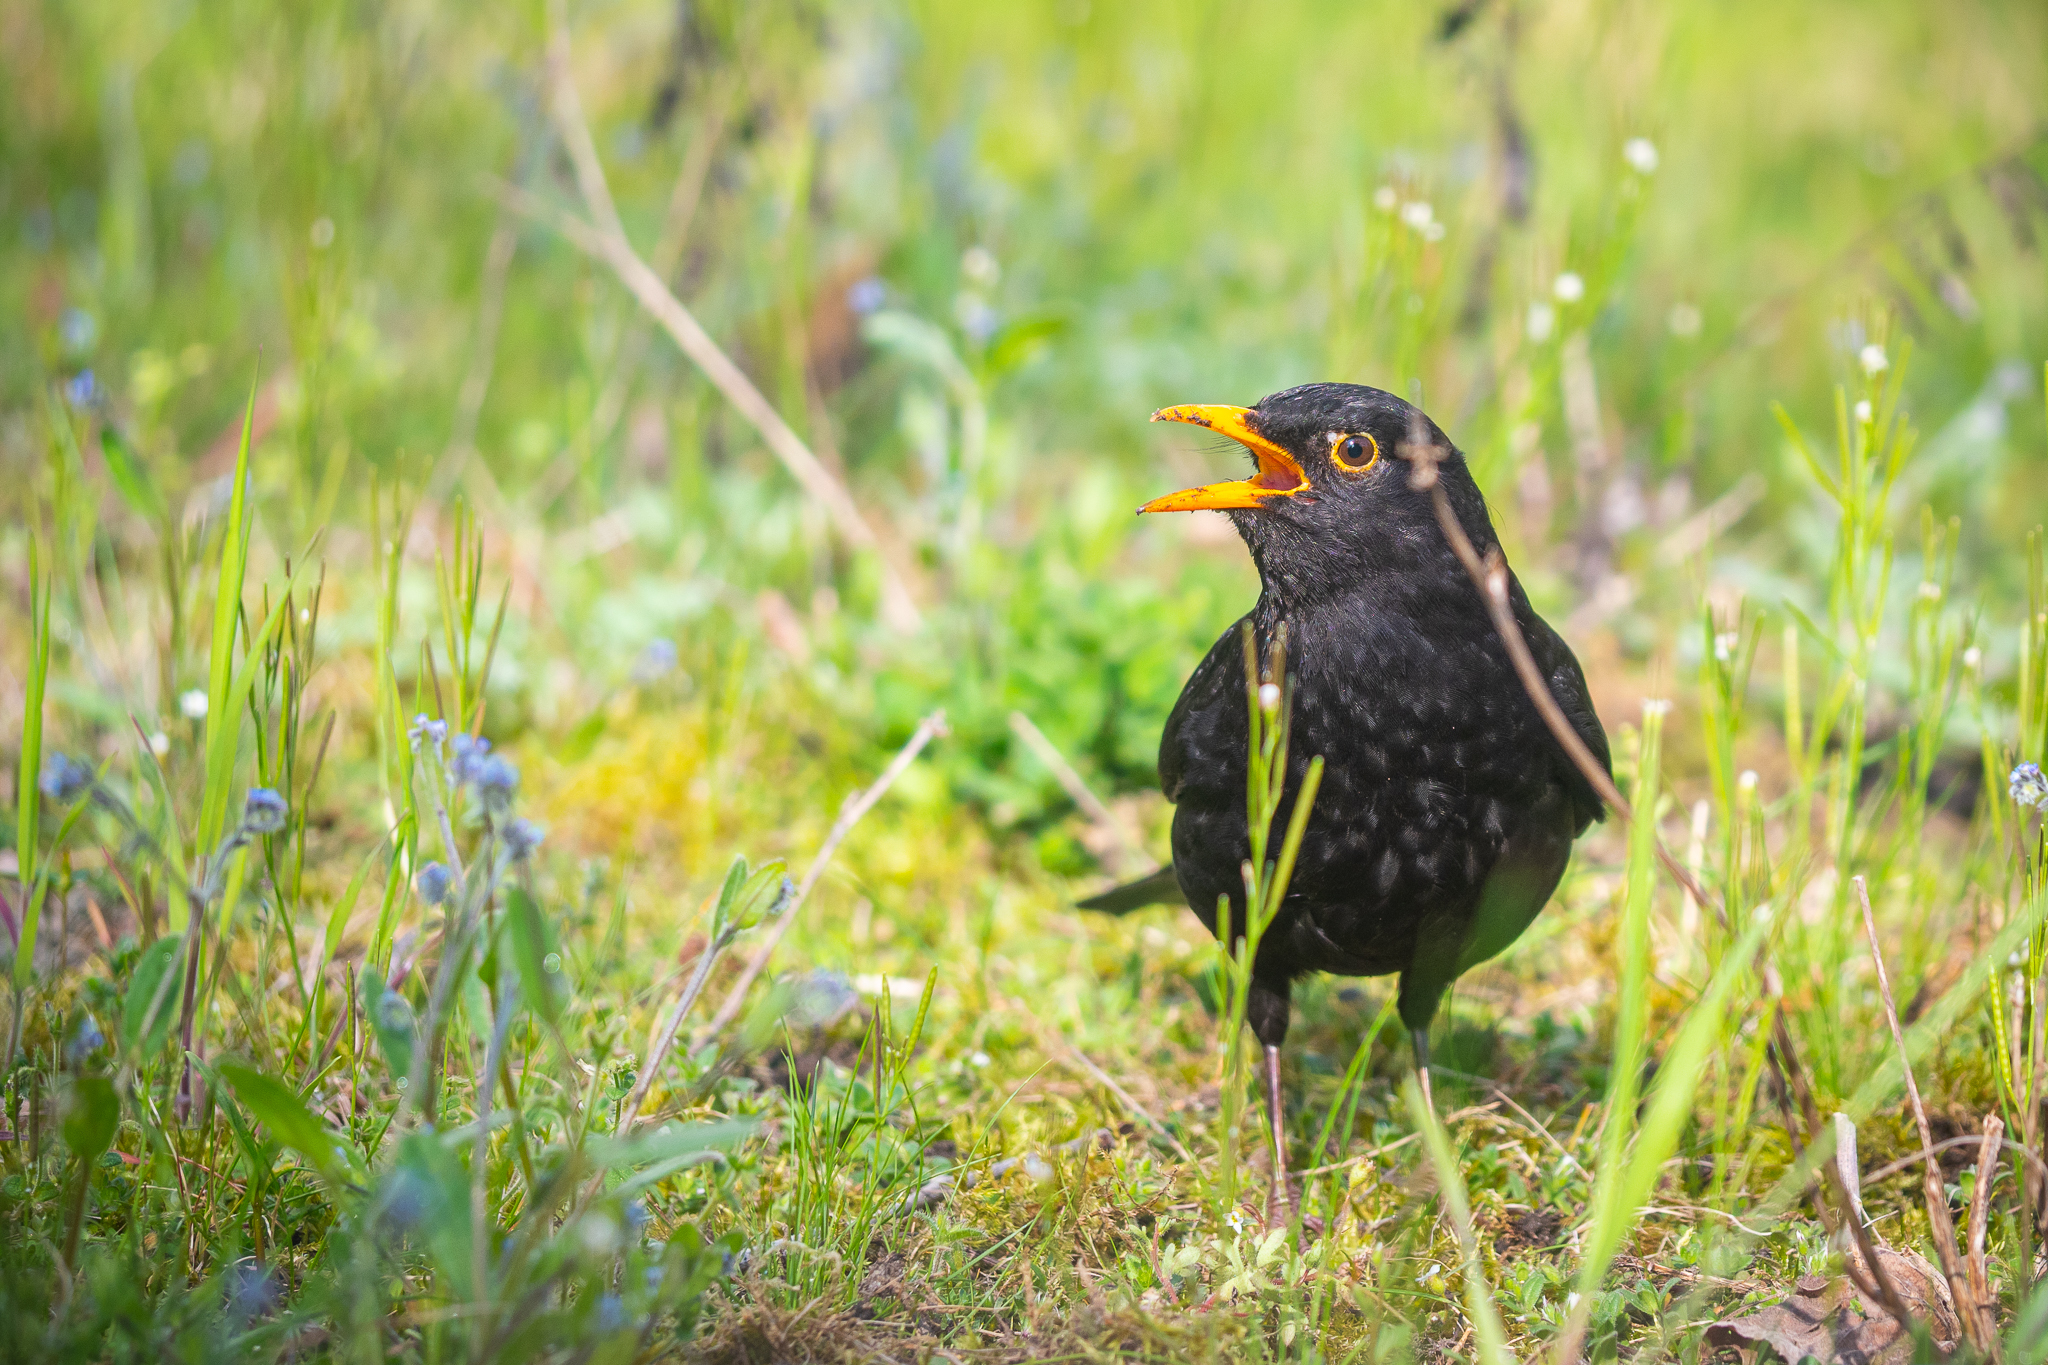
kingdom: Animalia
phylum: Chordata
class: Aves
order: Passeriformes
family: Turdidae
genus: Turdus
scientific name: Turdus merula
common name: Common blackbird
